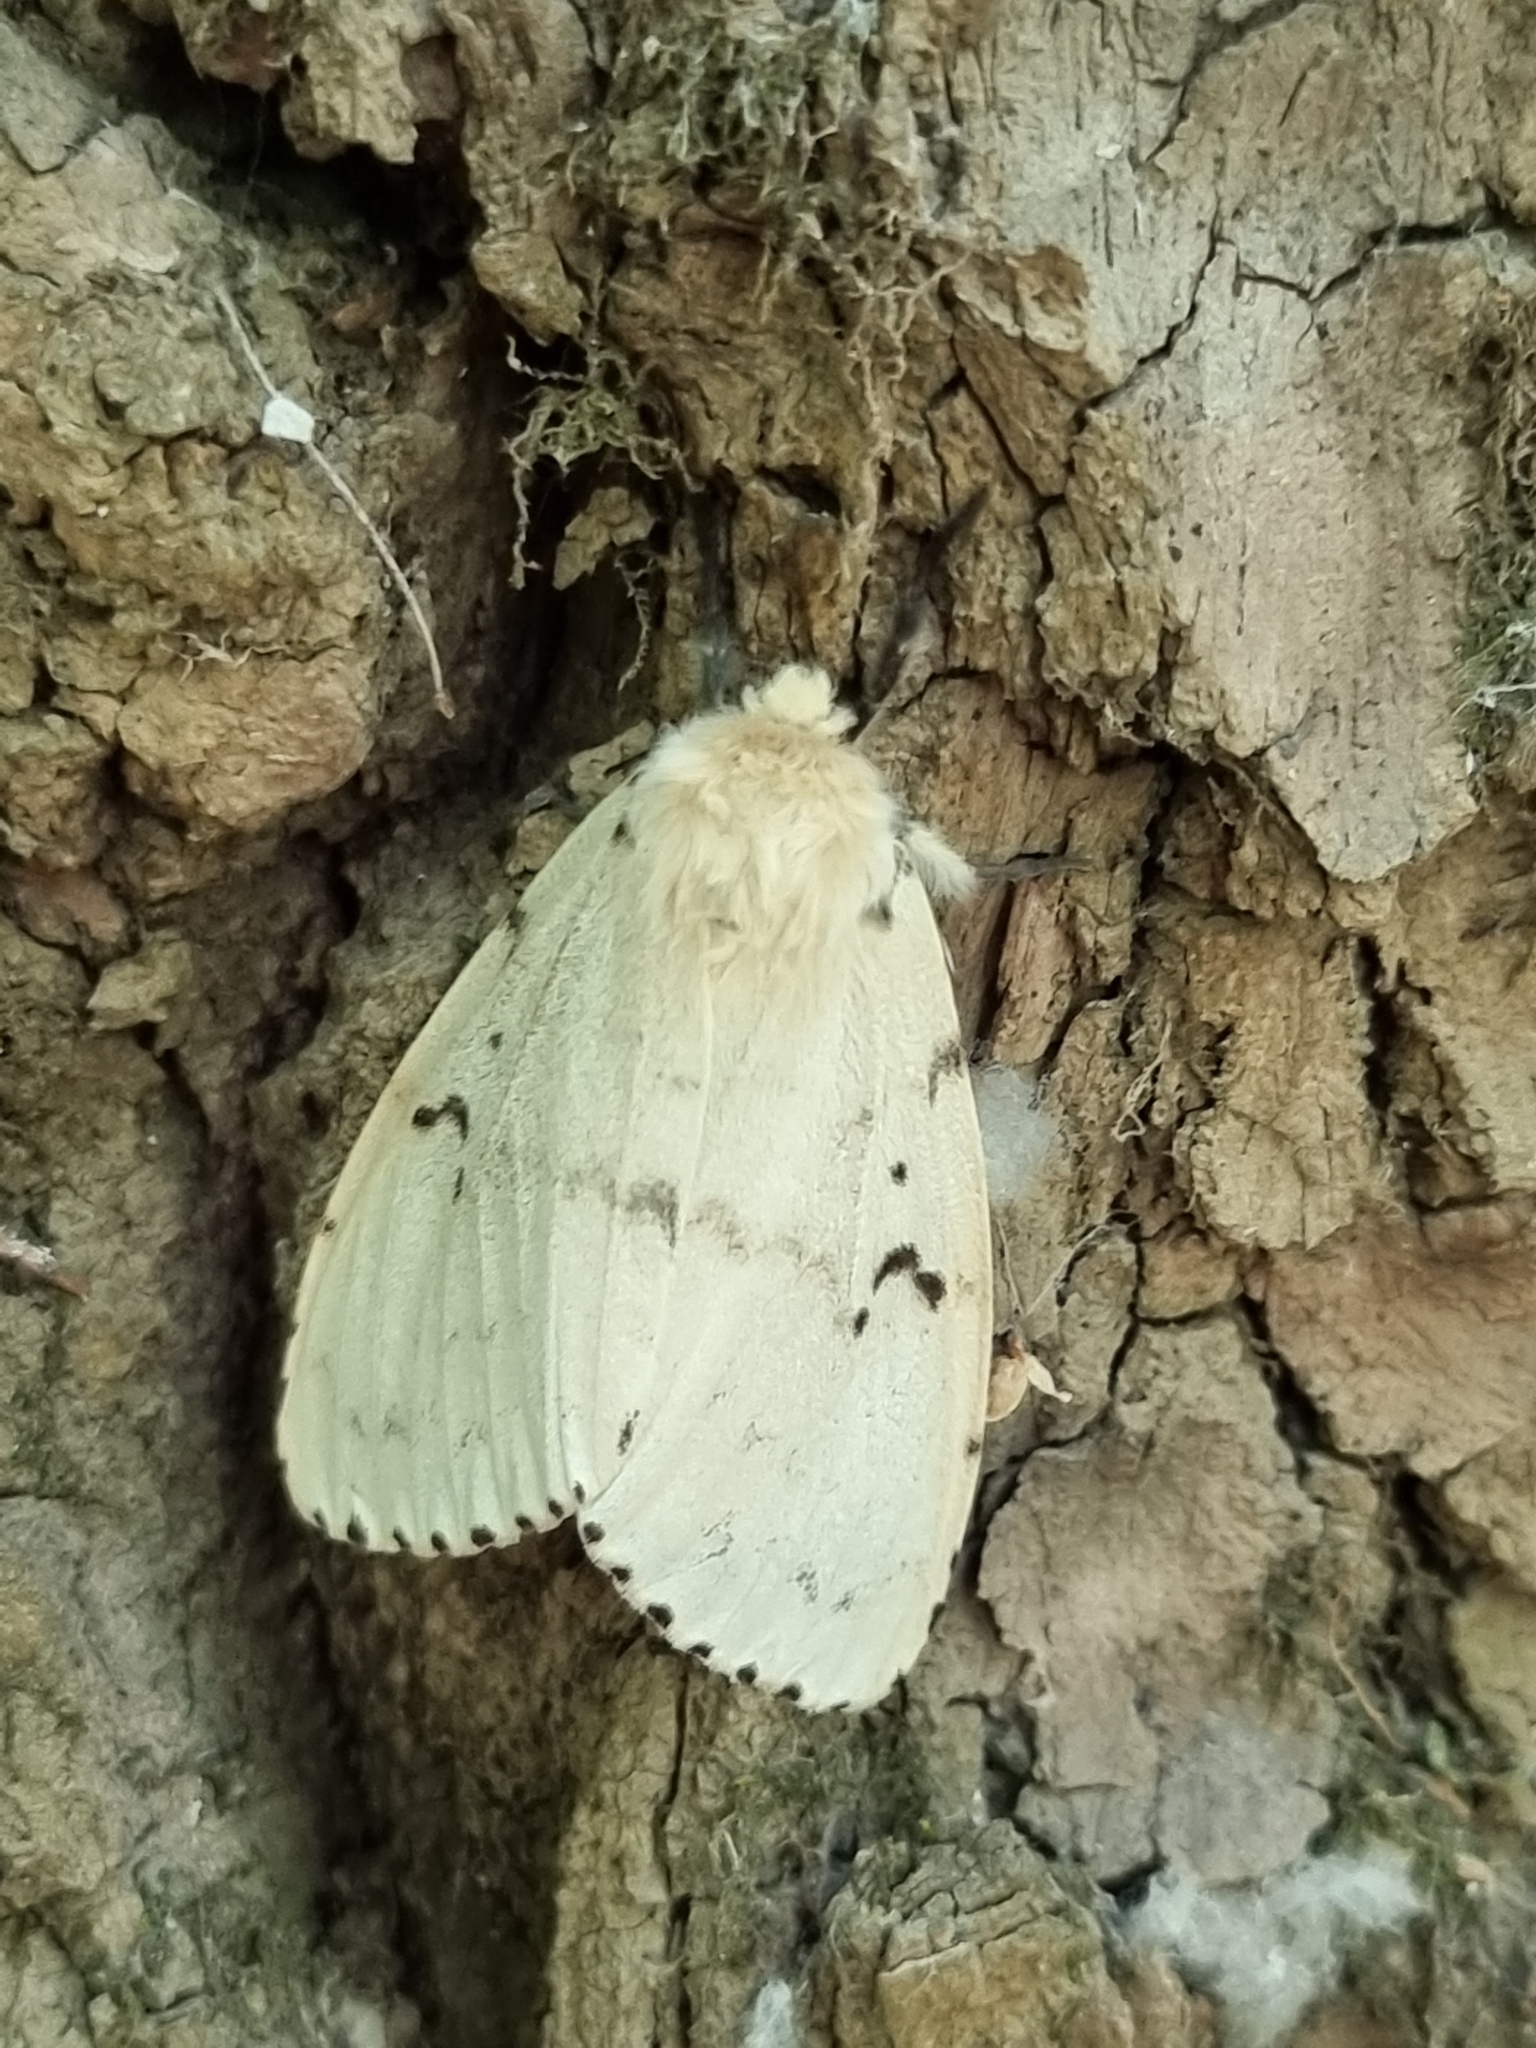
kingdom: Animalia
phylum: Arthropoda
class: Insecta
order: Lepidoptera
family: Erebidae
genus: Lymantria
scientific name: Lymantria dispar
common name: Gypsy moth
